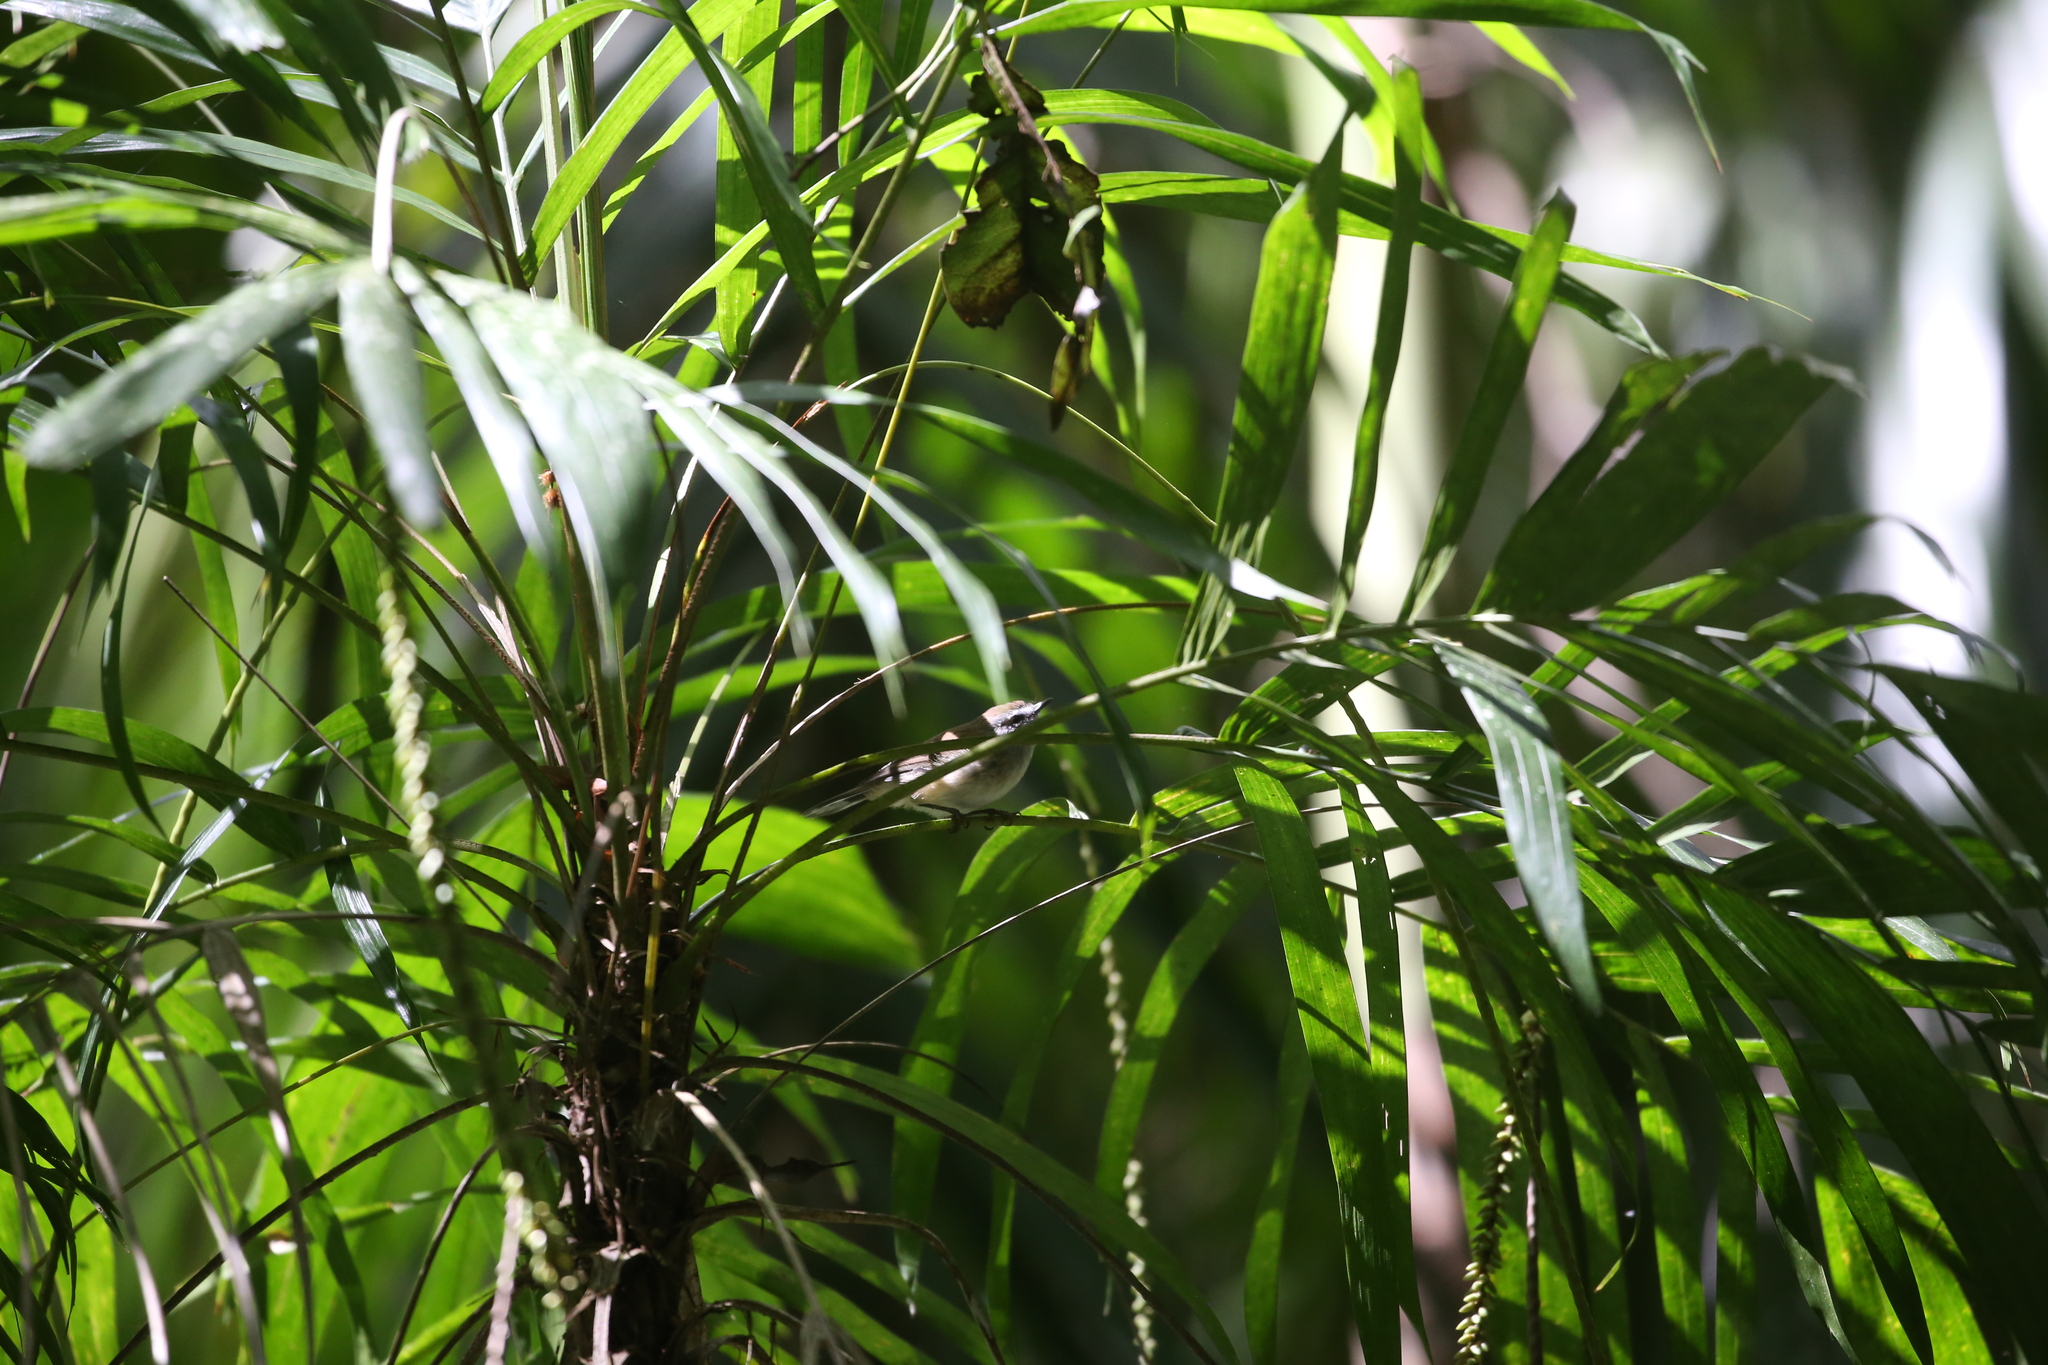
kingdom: Animalia
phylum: Chordata
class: Aves
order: Passeriformes
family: Acanthizidae
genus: Gerygone
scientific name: Gerygone mouki
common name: Brown gerygone
